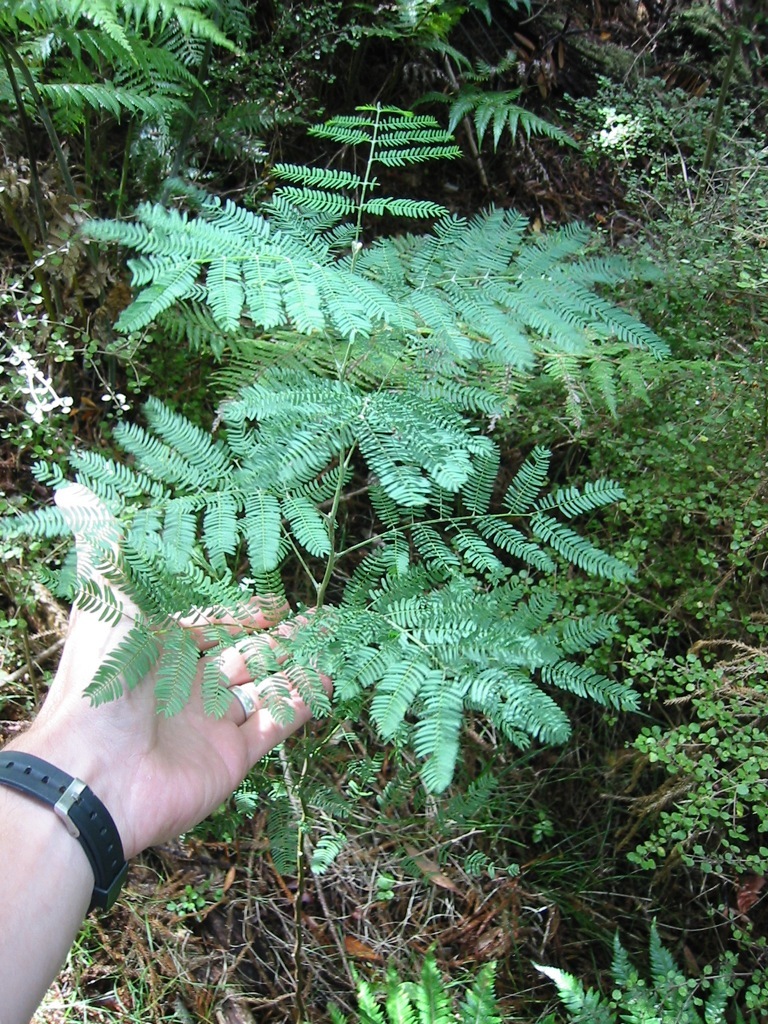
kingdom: Plantae
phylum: Tracheophyta
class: Magnoliopsida
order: Fabales
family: Fabaceae
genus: Acacia
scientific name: Acacia melanoxylon
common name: Blackwood
